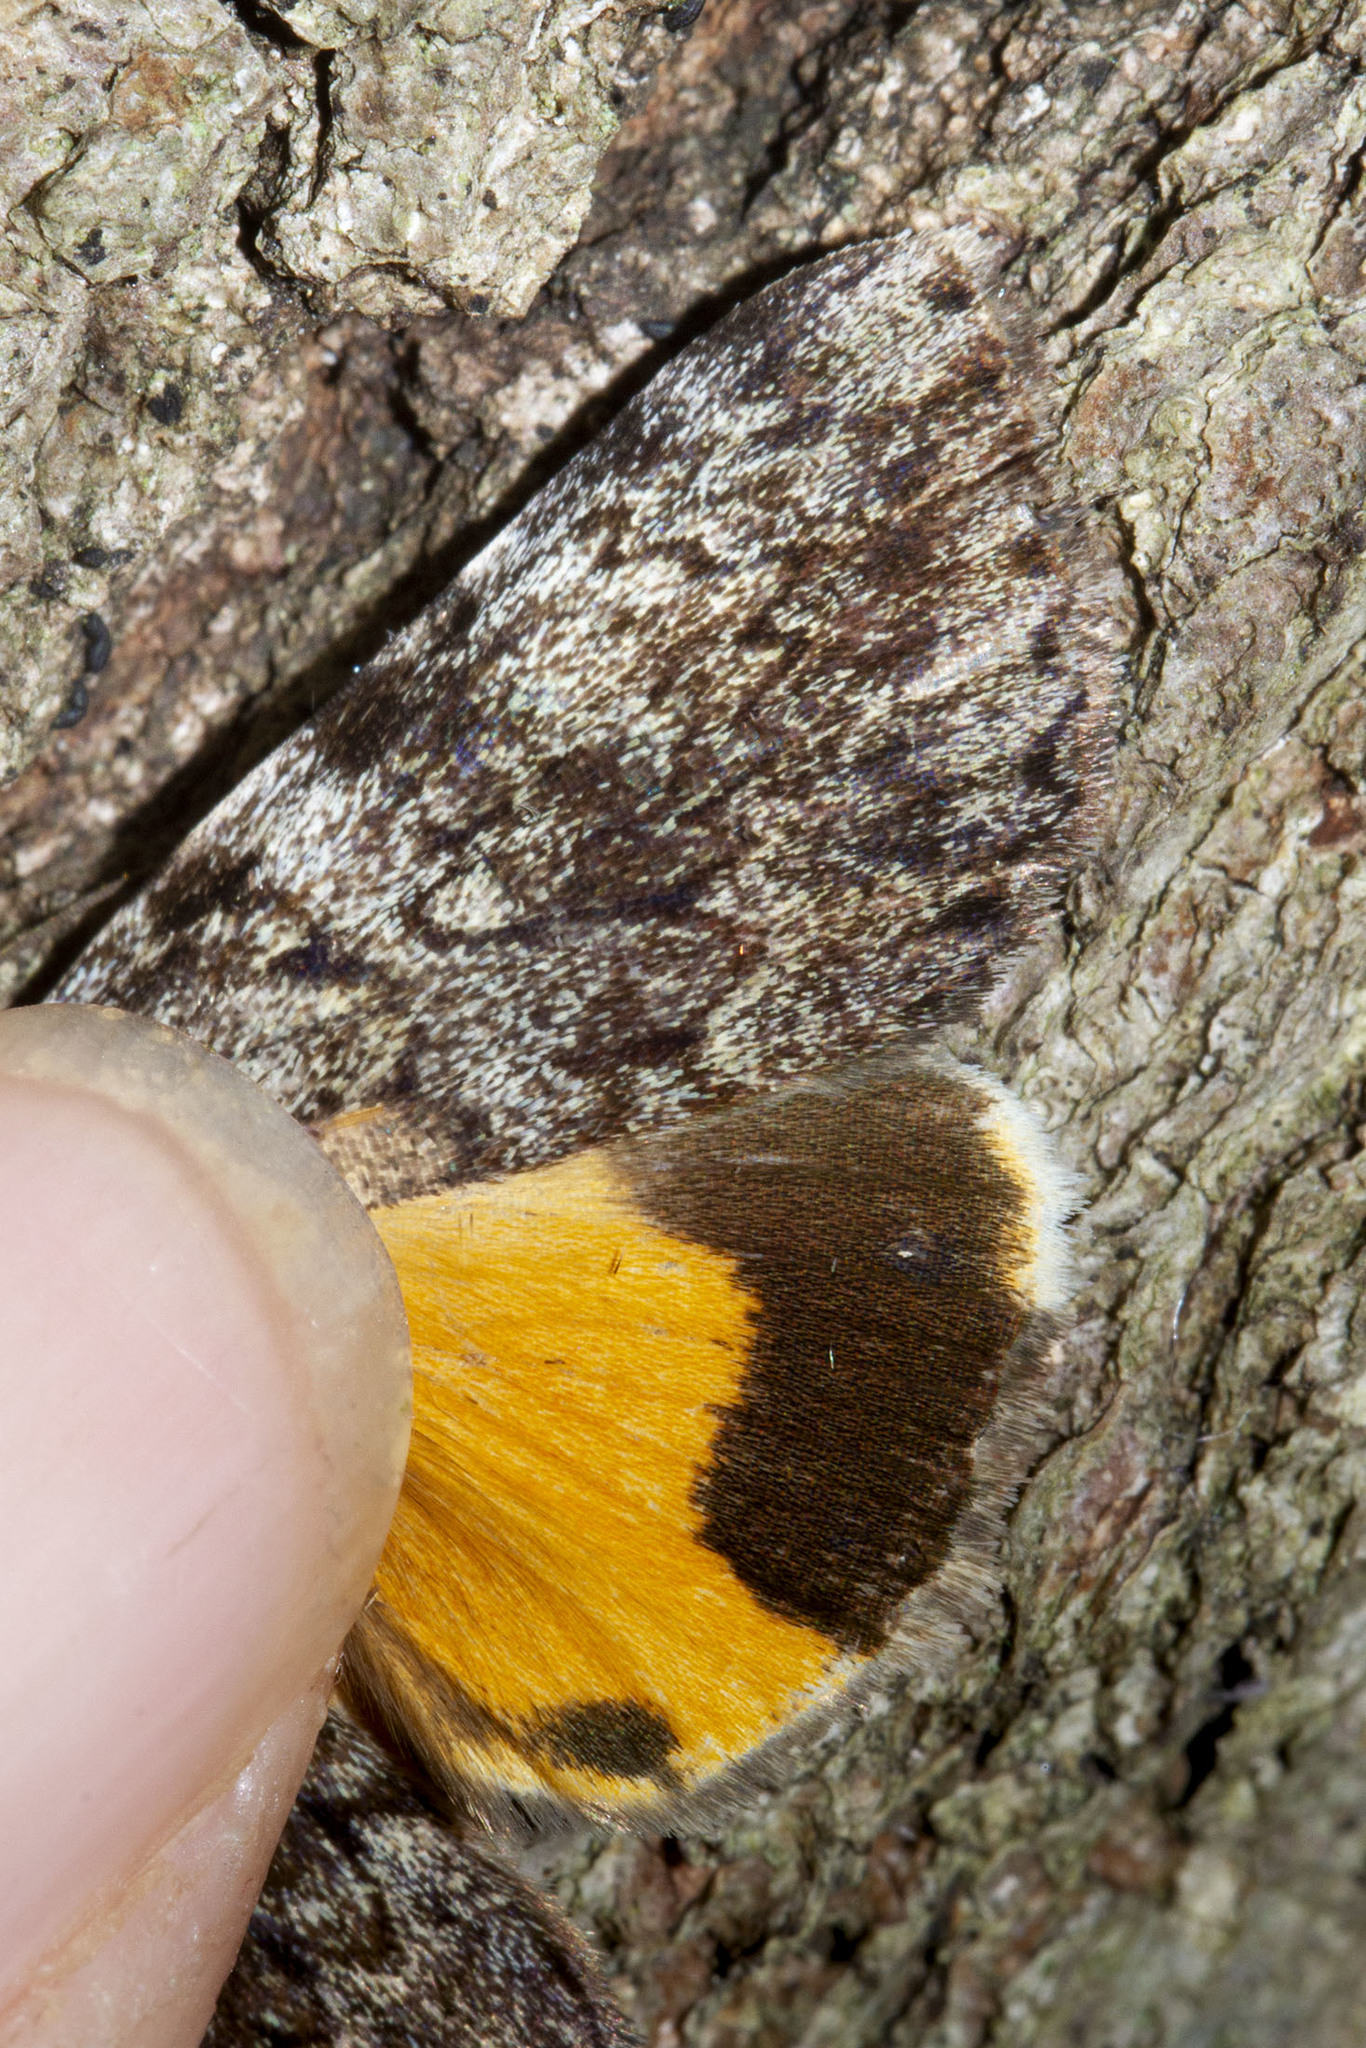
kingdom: Animalia
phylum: Arthropoda
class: Insecta
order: Lepidoptera
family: Erebidae
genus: Catocala
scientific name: Catocala lineella
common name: Little lined underwing
